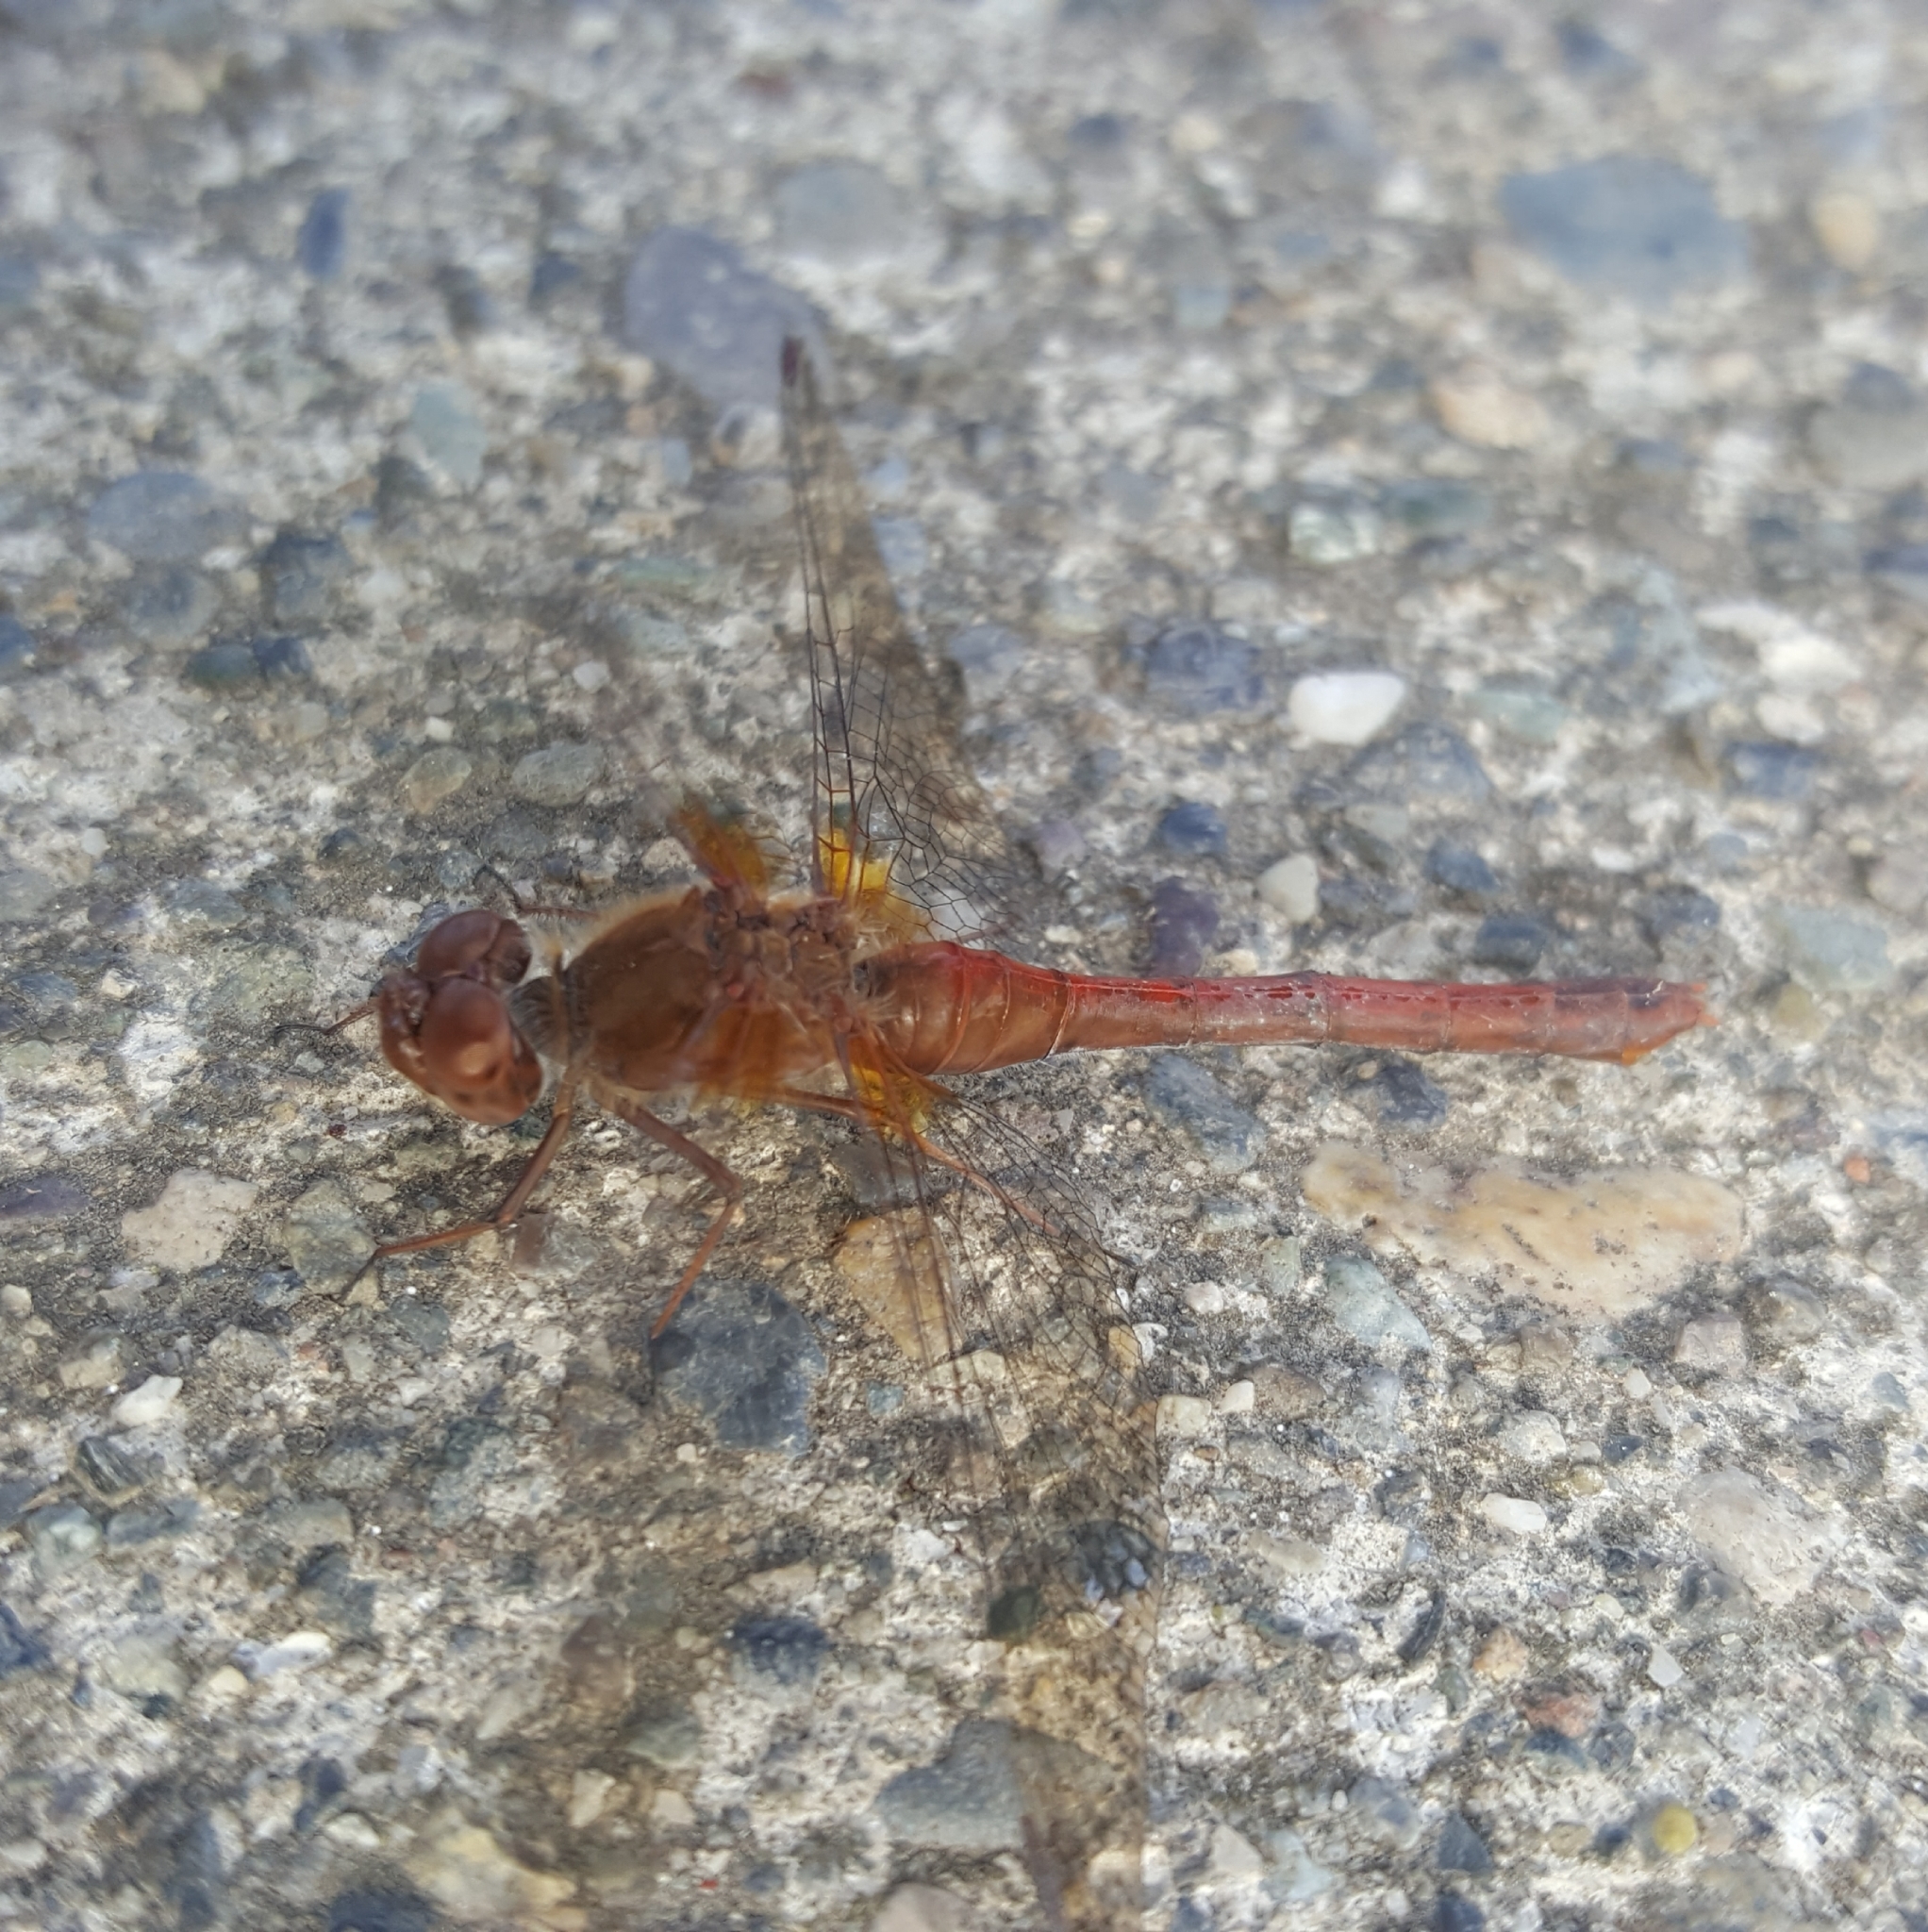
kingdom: Animalia
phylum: Arthropoda
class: Insecta
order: Odonata
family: Libellulidae
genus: Sympetrum
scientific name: Sympetrum vicinum
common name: Autumn meadowhawk
